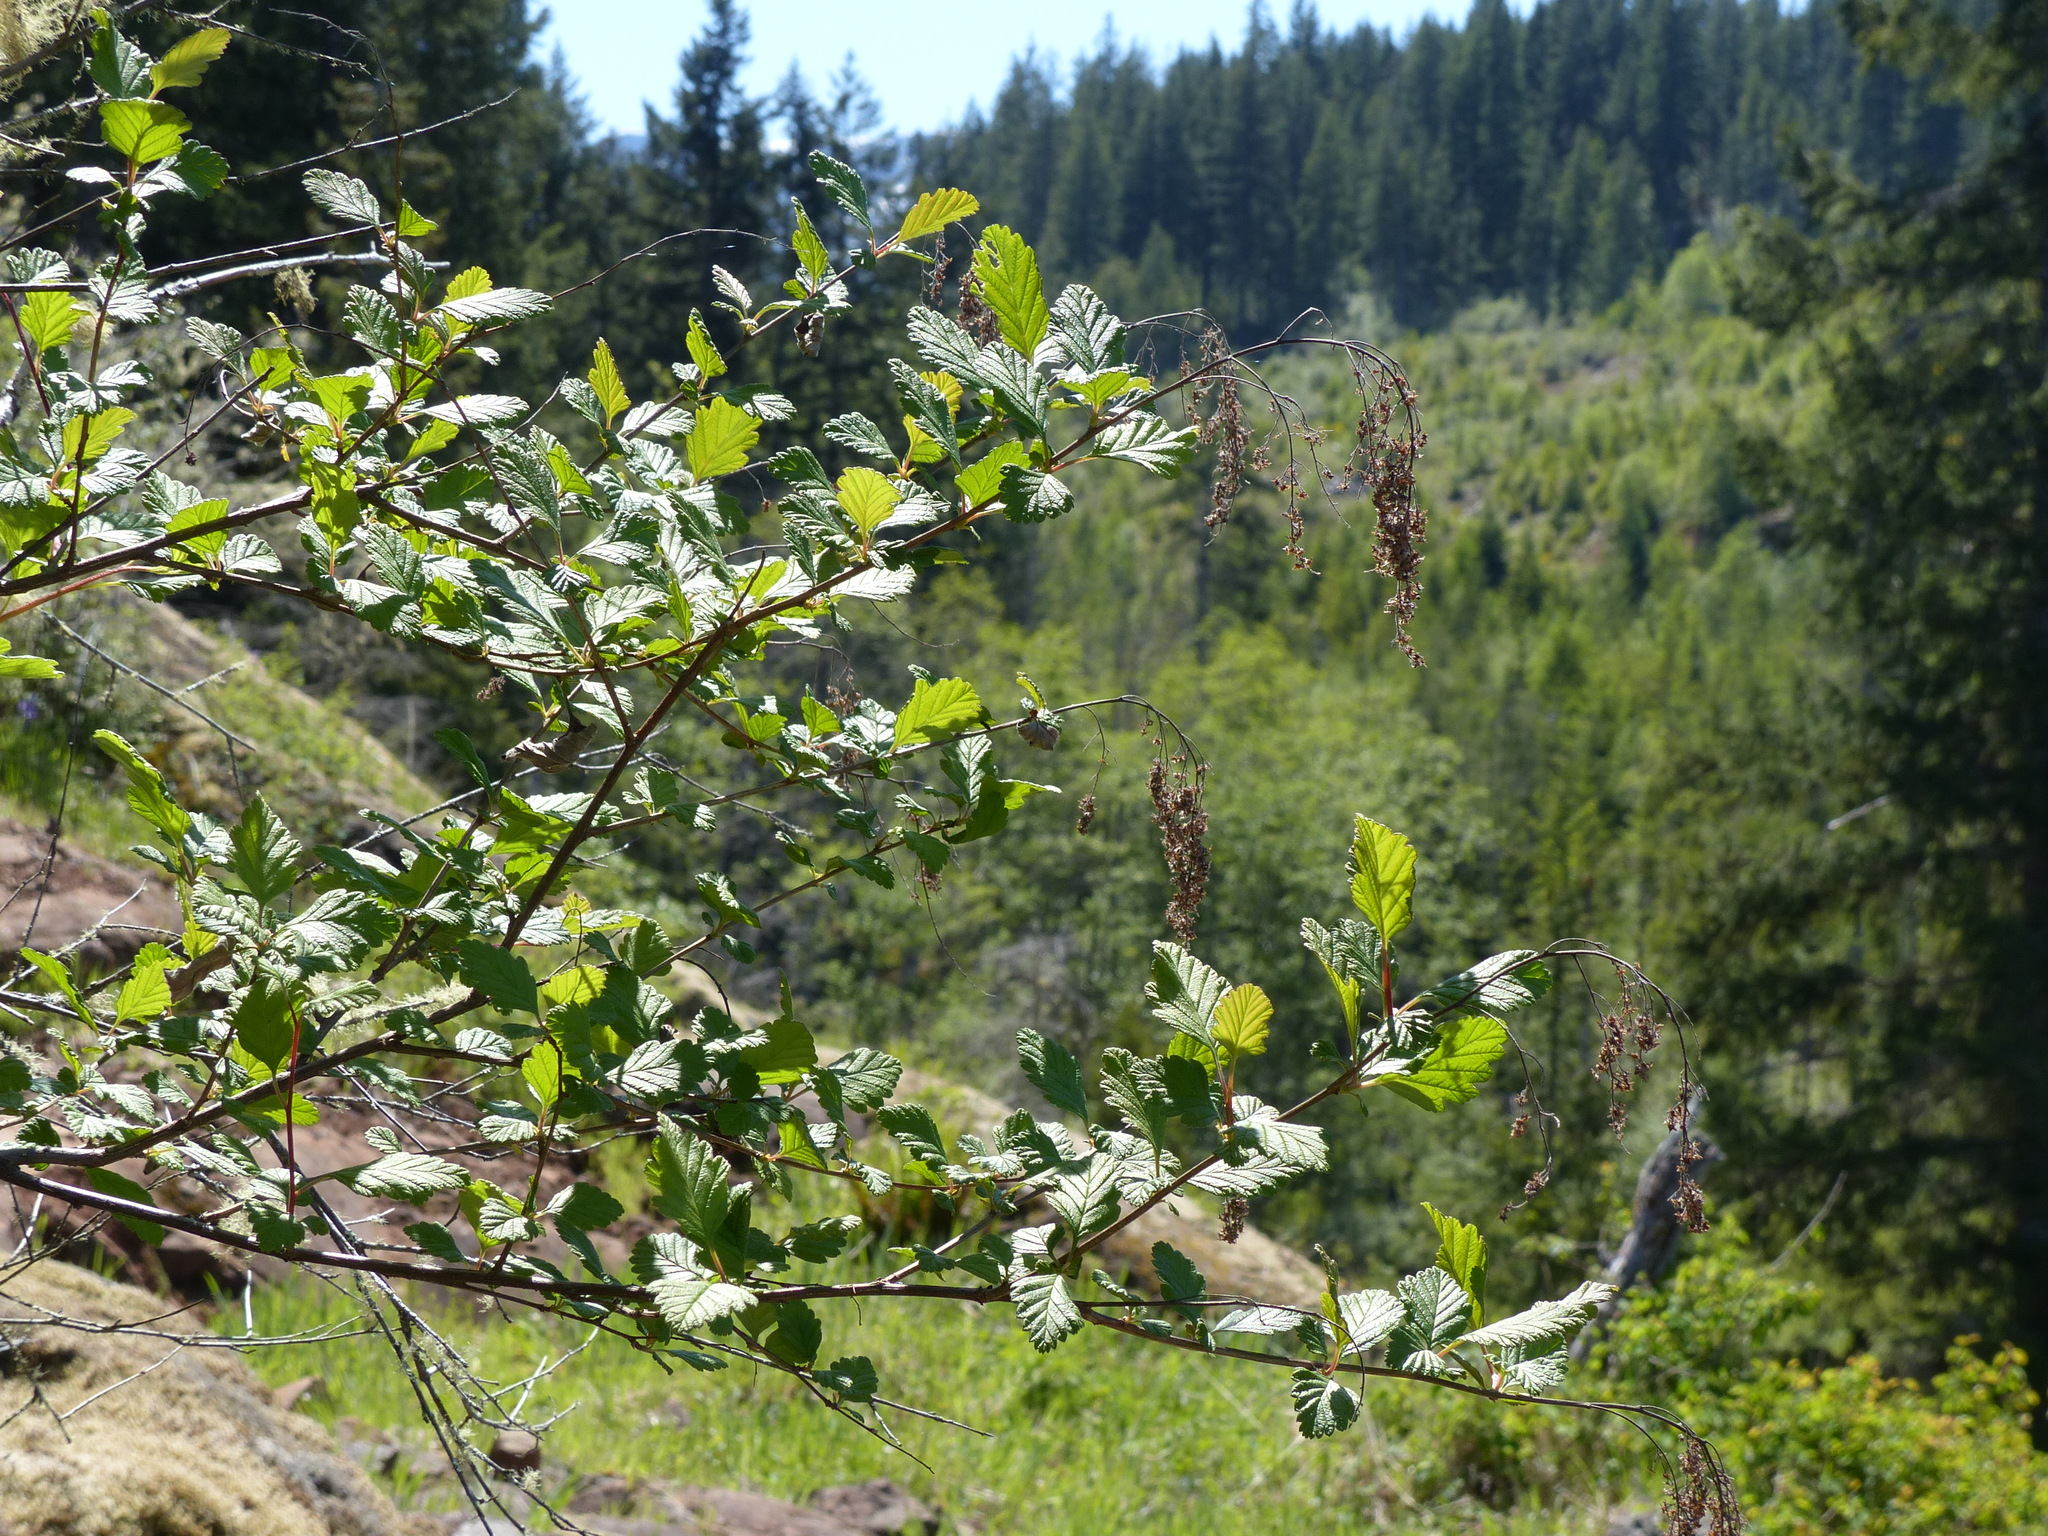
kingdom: Plantae
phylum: Tracheophyta
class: Magnoliopsida
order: Rosales
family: Rosaceae
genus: Holodiscus
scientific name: Holodiscus discolor
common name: Oceanspray
